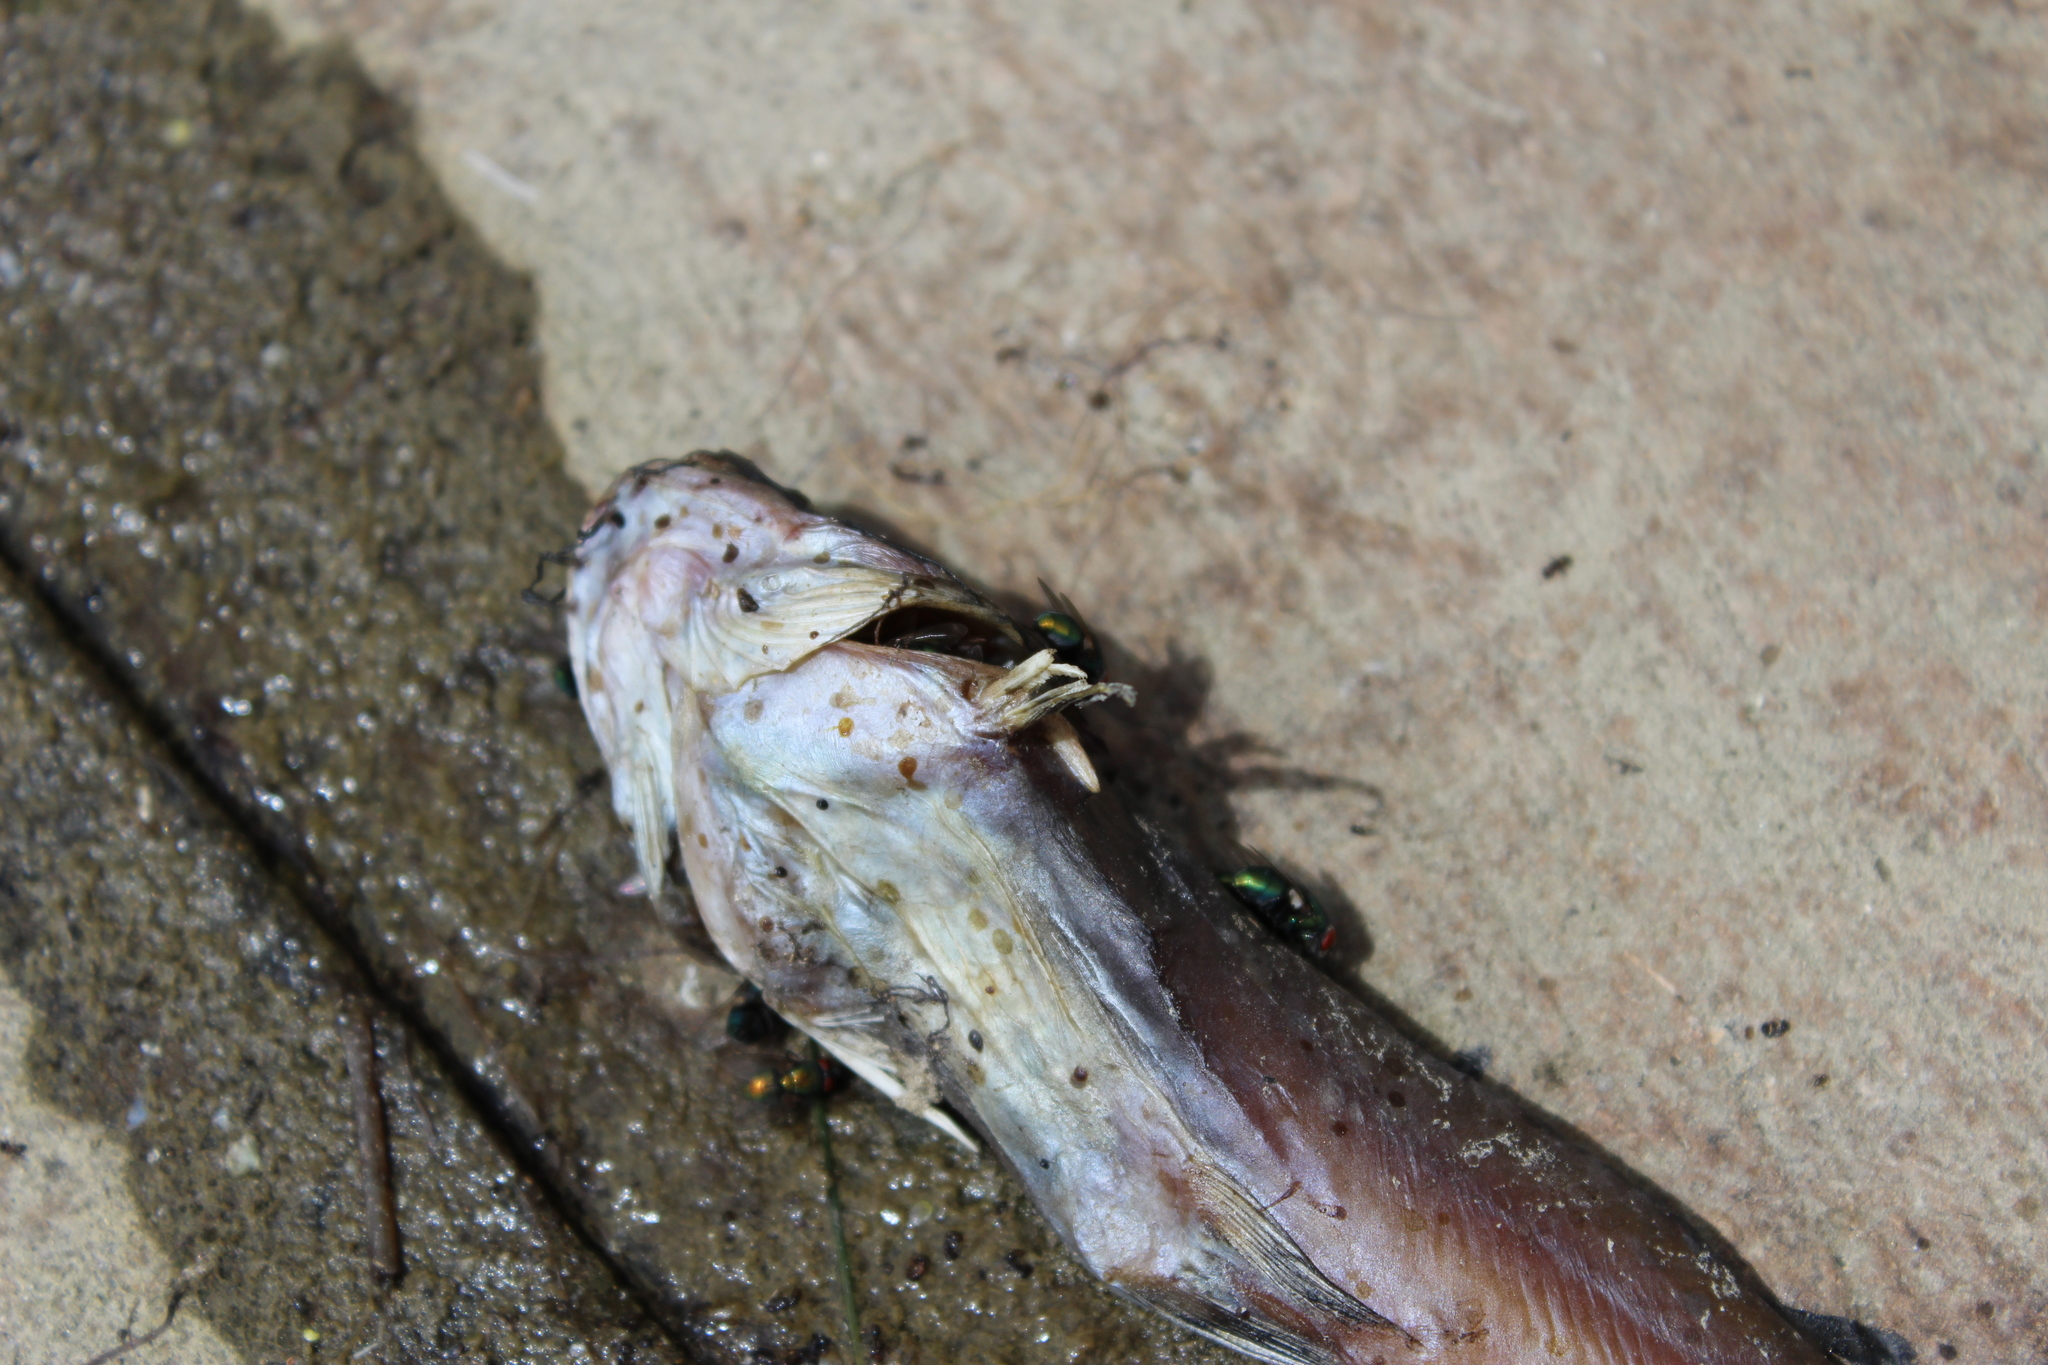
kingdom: Animalia
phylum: Chordata
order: Siluriformes
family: Ictaluridae
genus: Ameiurus
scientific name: Ameiurus melas
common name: Black bullhead
